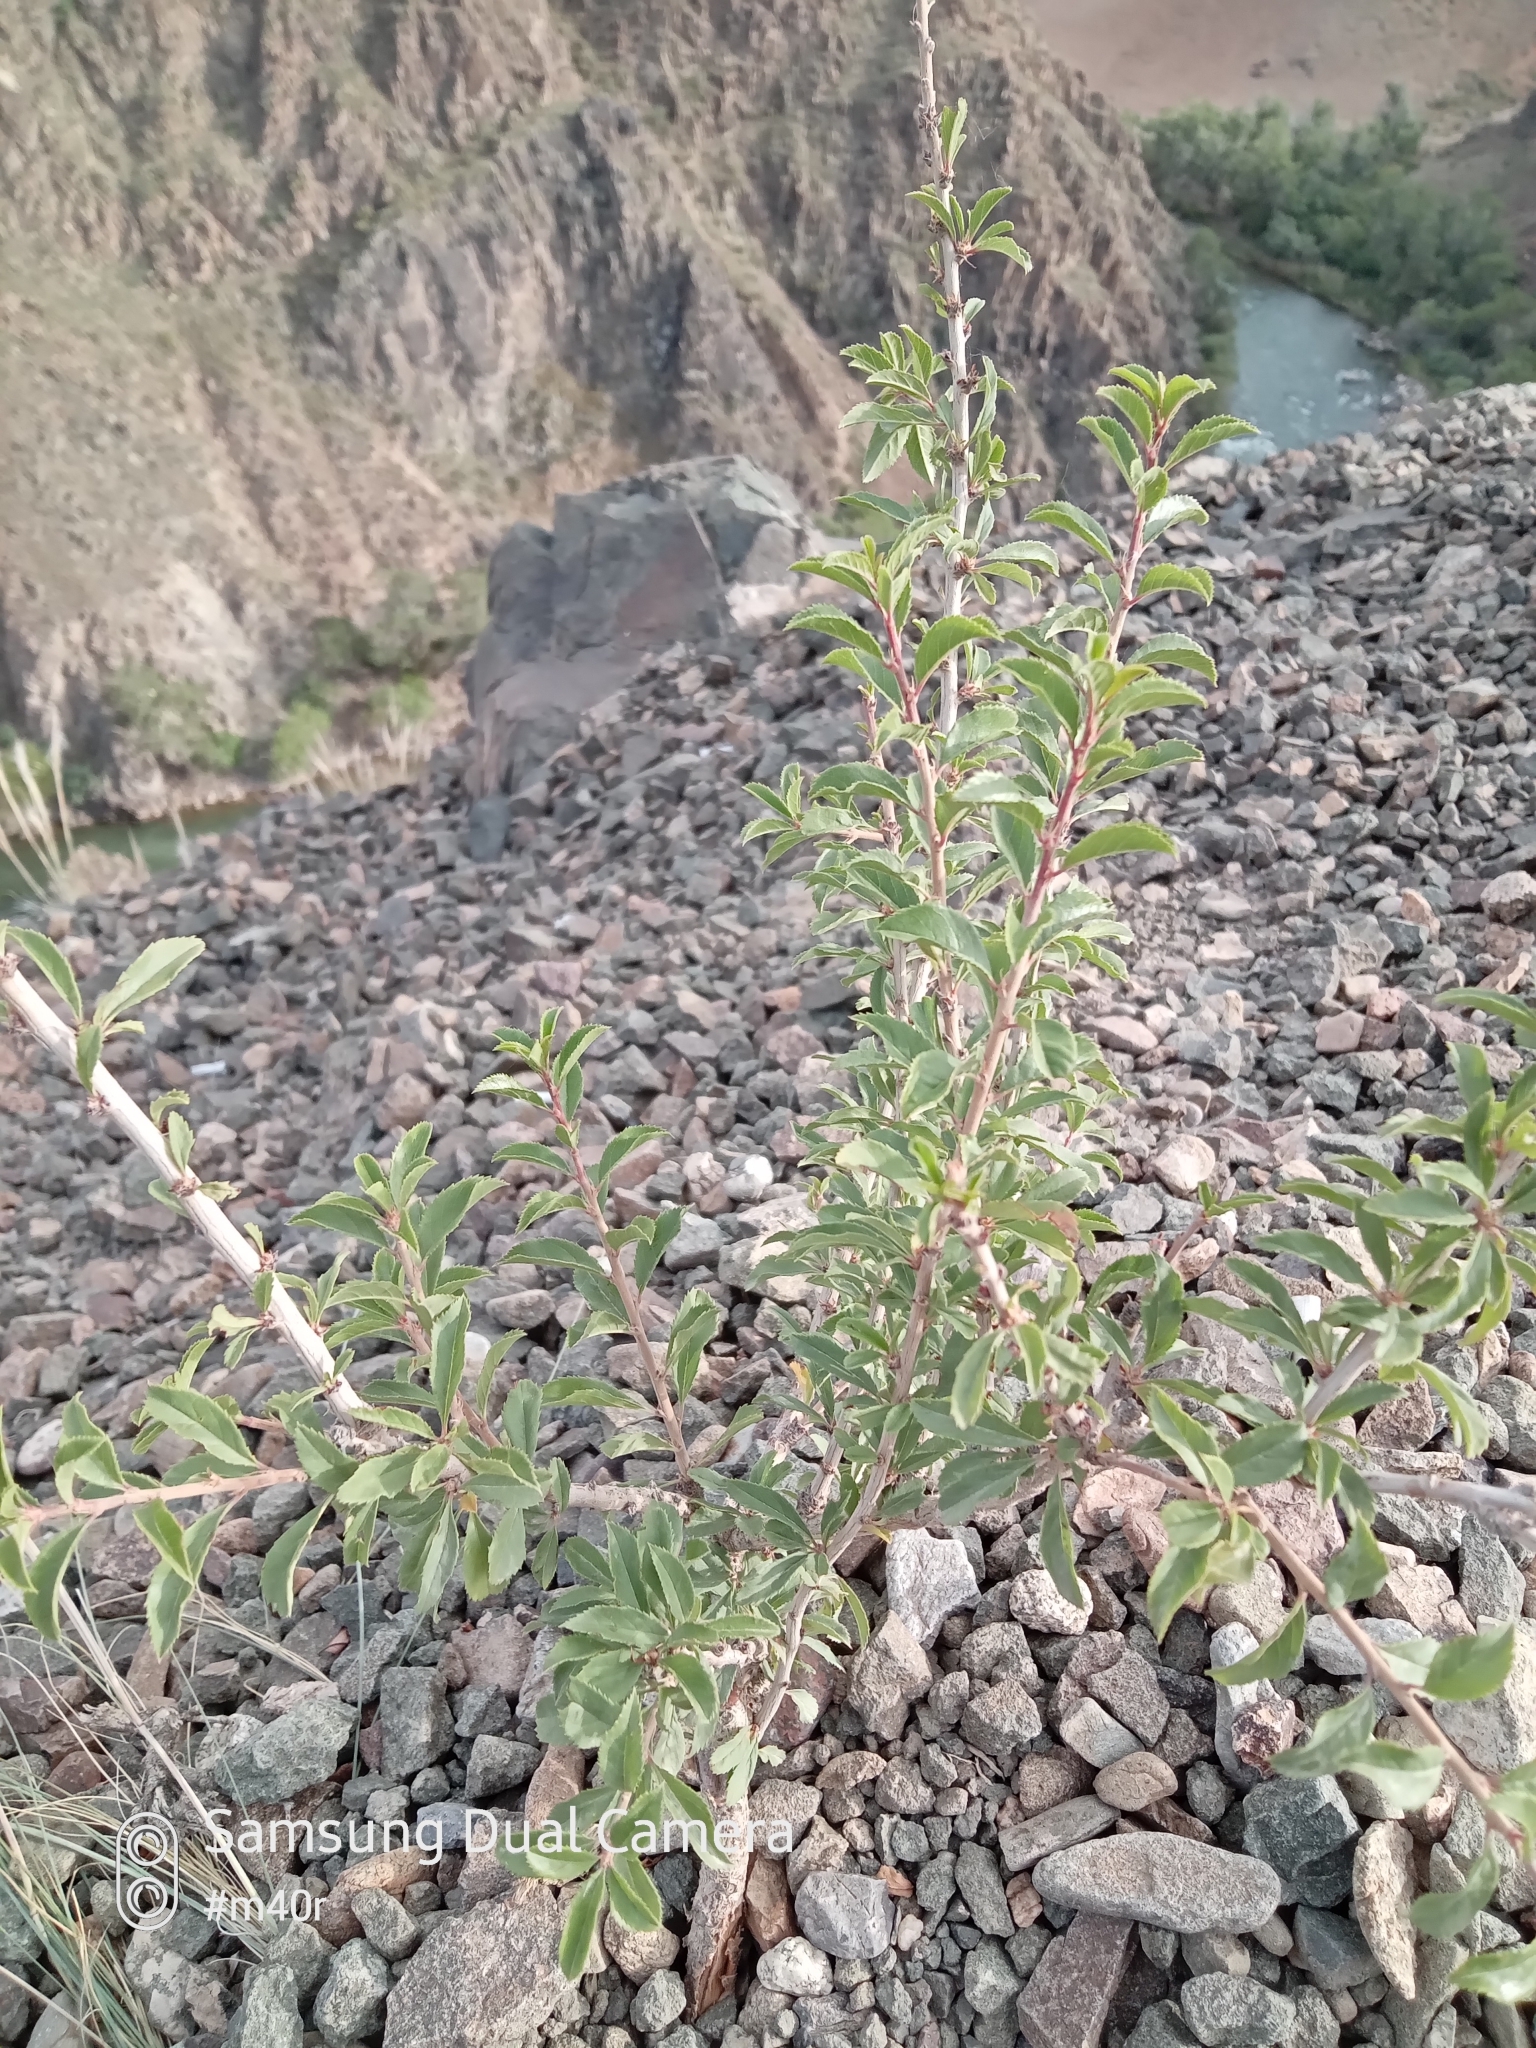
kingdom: Plantae
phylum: Tracheophyta
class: Magnoliopsida
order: Rosales
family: Rosaceae
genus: Prunus
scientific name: Prunus prostrata
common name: Mountain cherry
